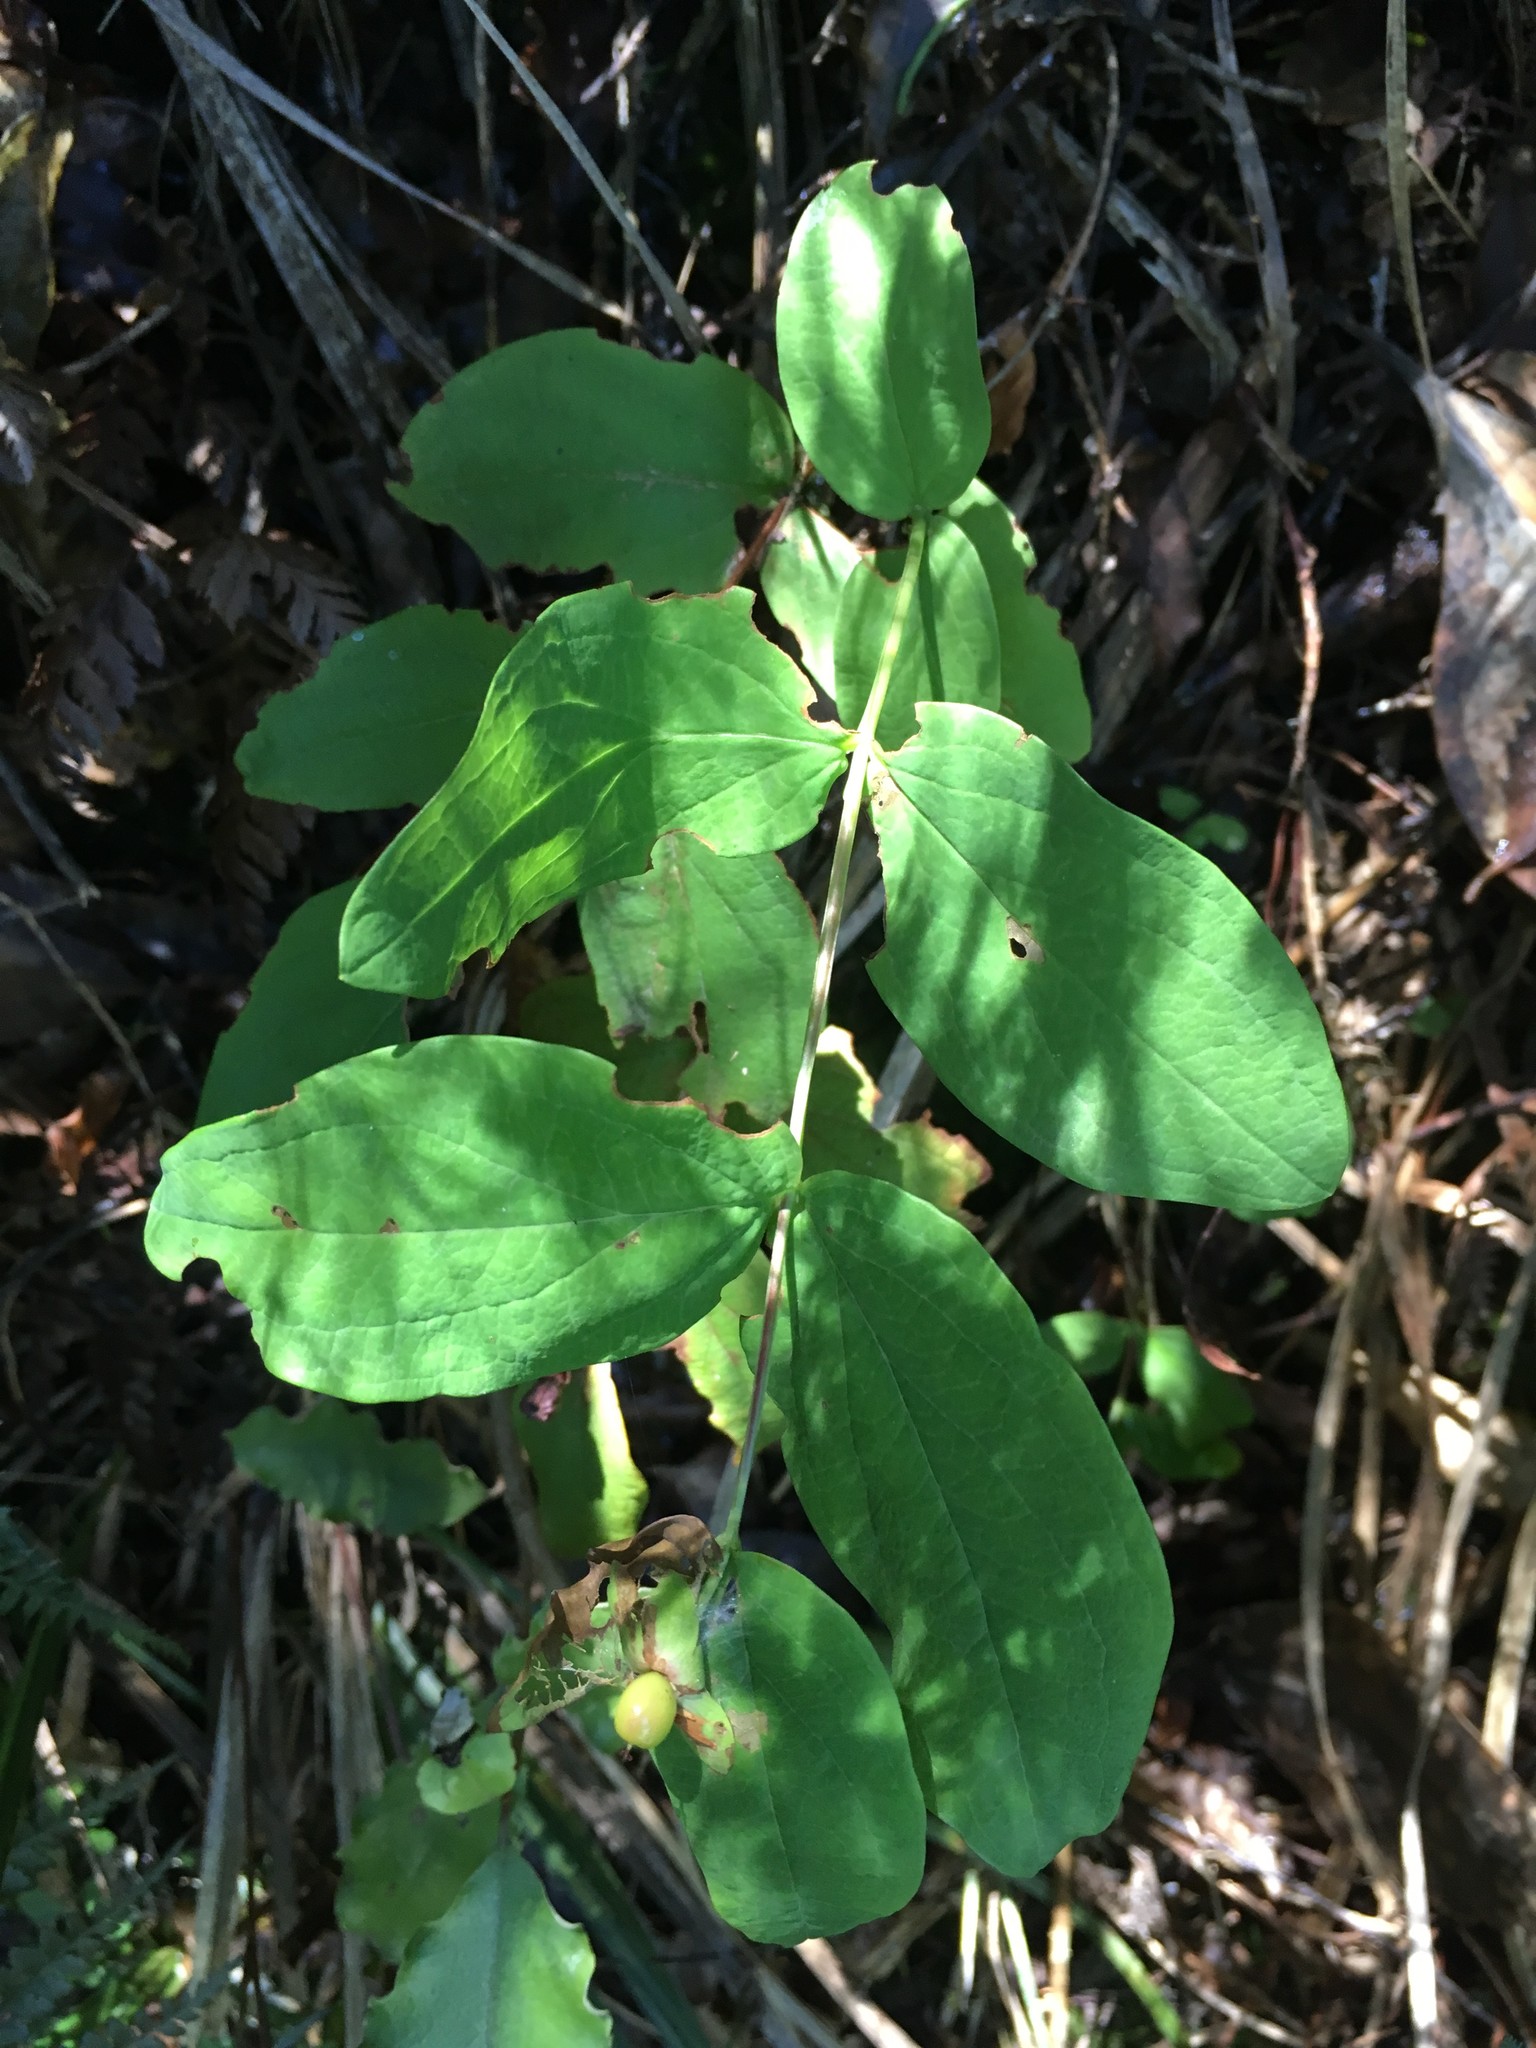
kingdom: Plantae
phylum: Tracheophyta
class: Magnoliopsida
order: Malpighiales
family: Hypericaceae
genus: Hypericum
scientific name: Hypericum androsaemum
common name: Sweet-amber
